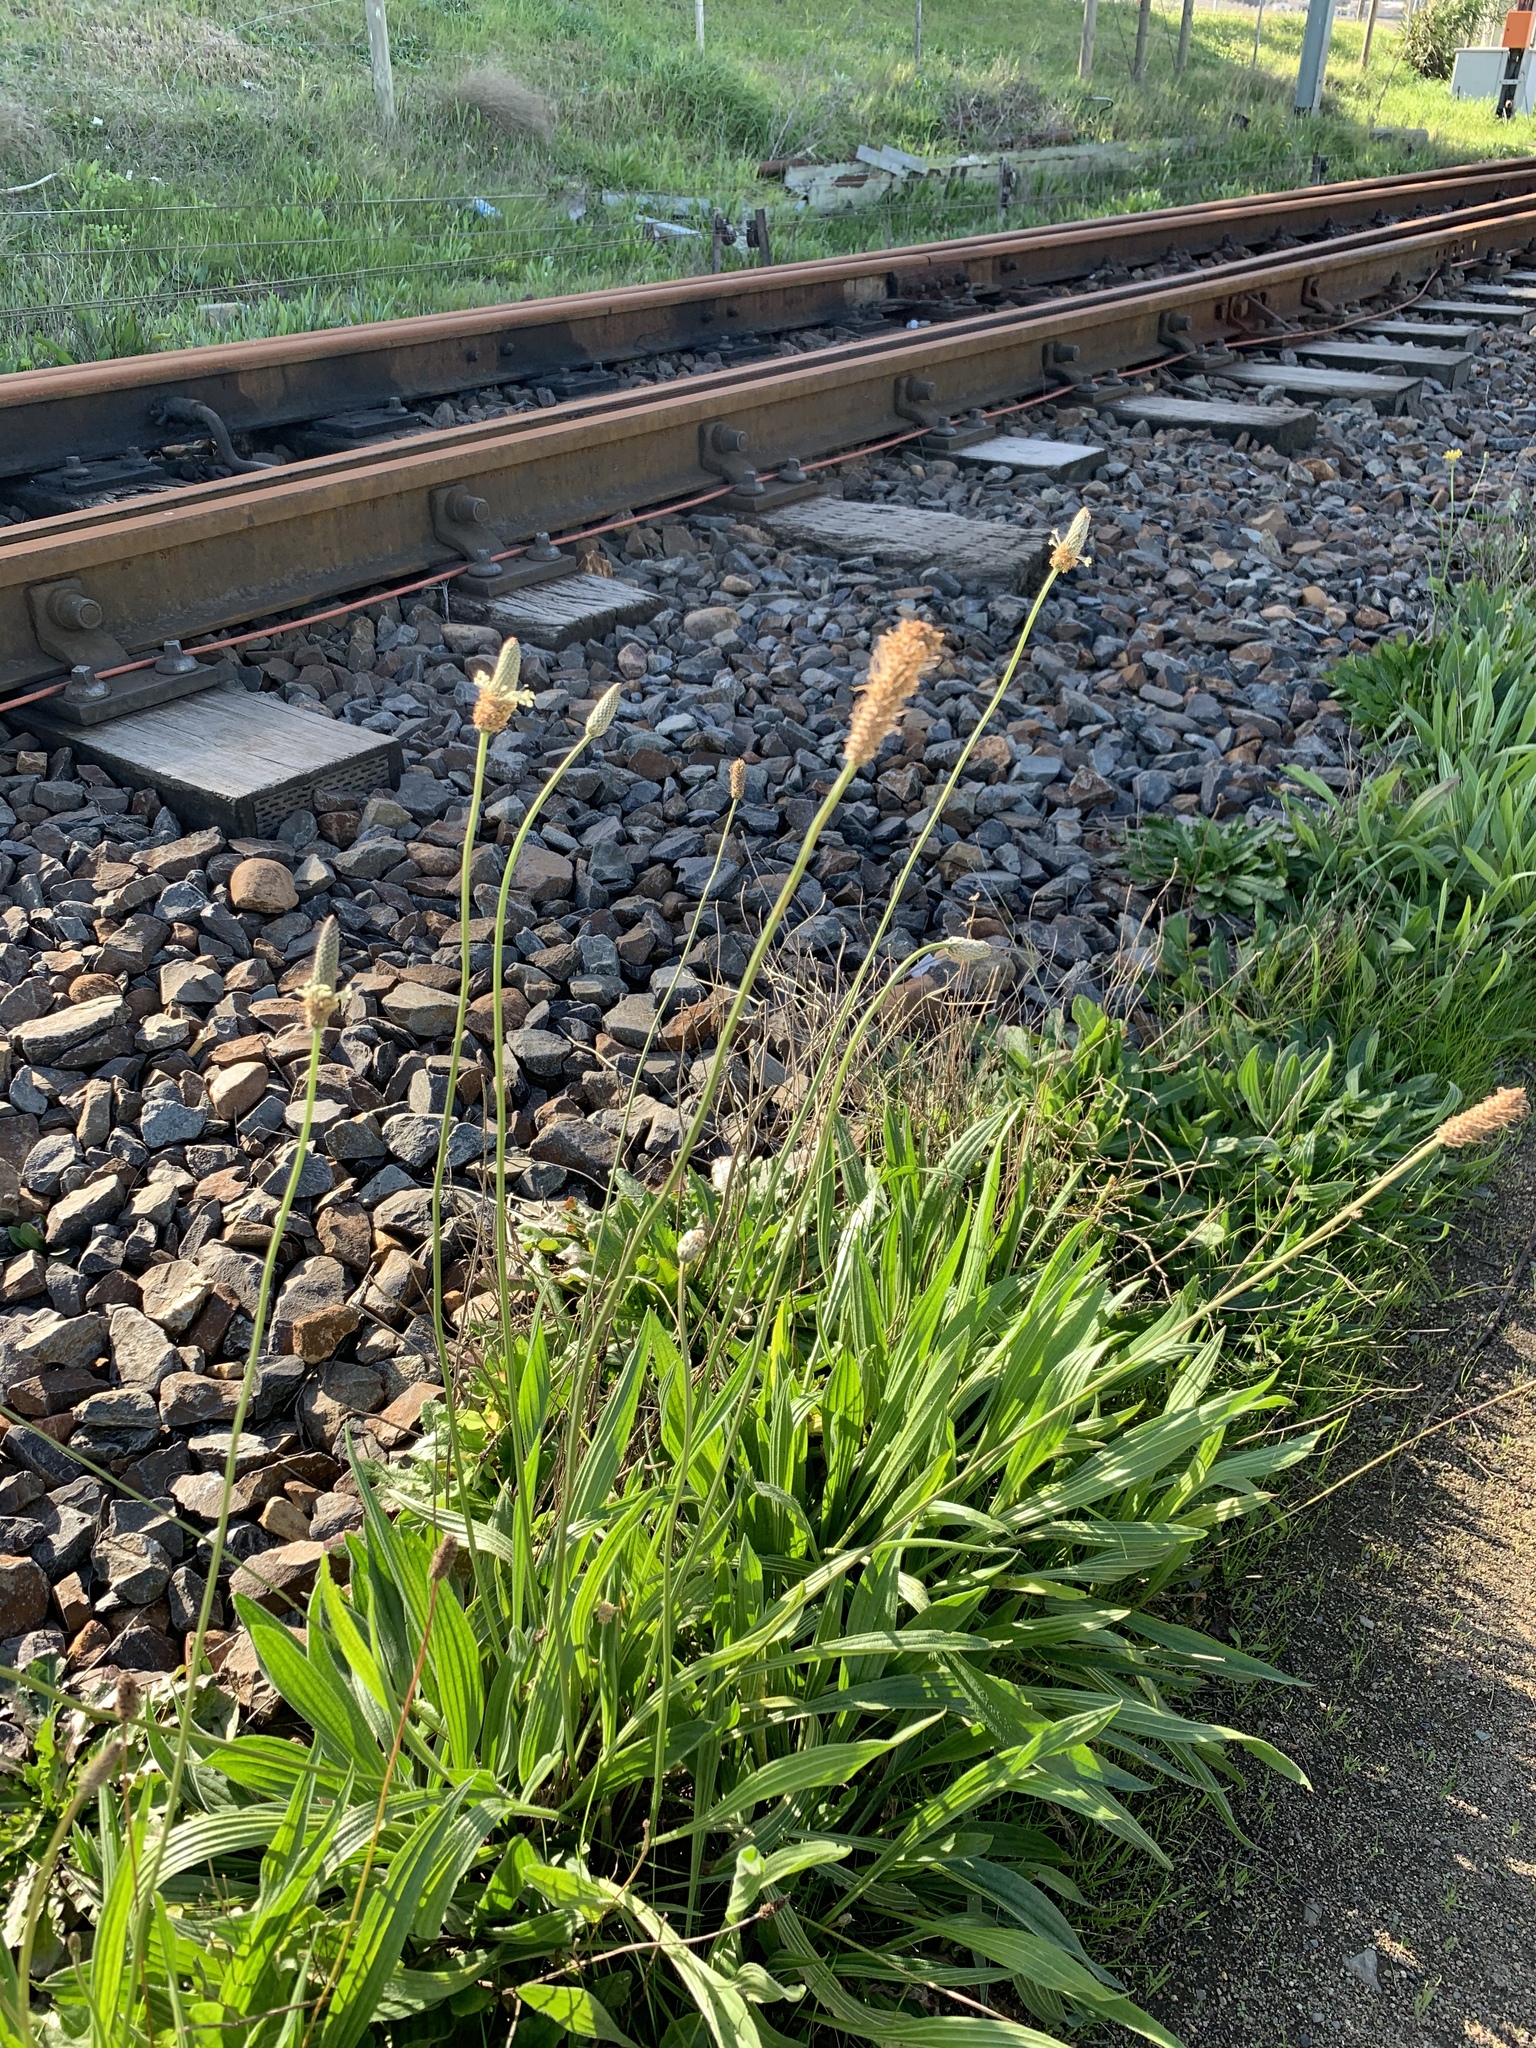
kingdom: Plantae
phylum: Tracheophyta
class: Magnoliopsida
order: Lamiales
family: Plantaginaceae
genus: Plantago
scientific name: Plantago lanceolata
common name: Ribwort plantain
